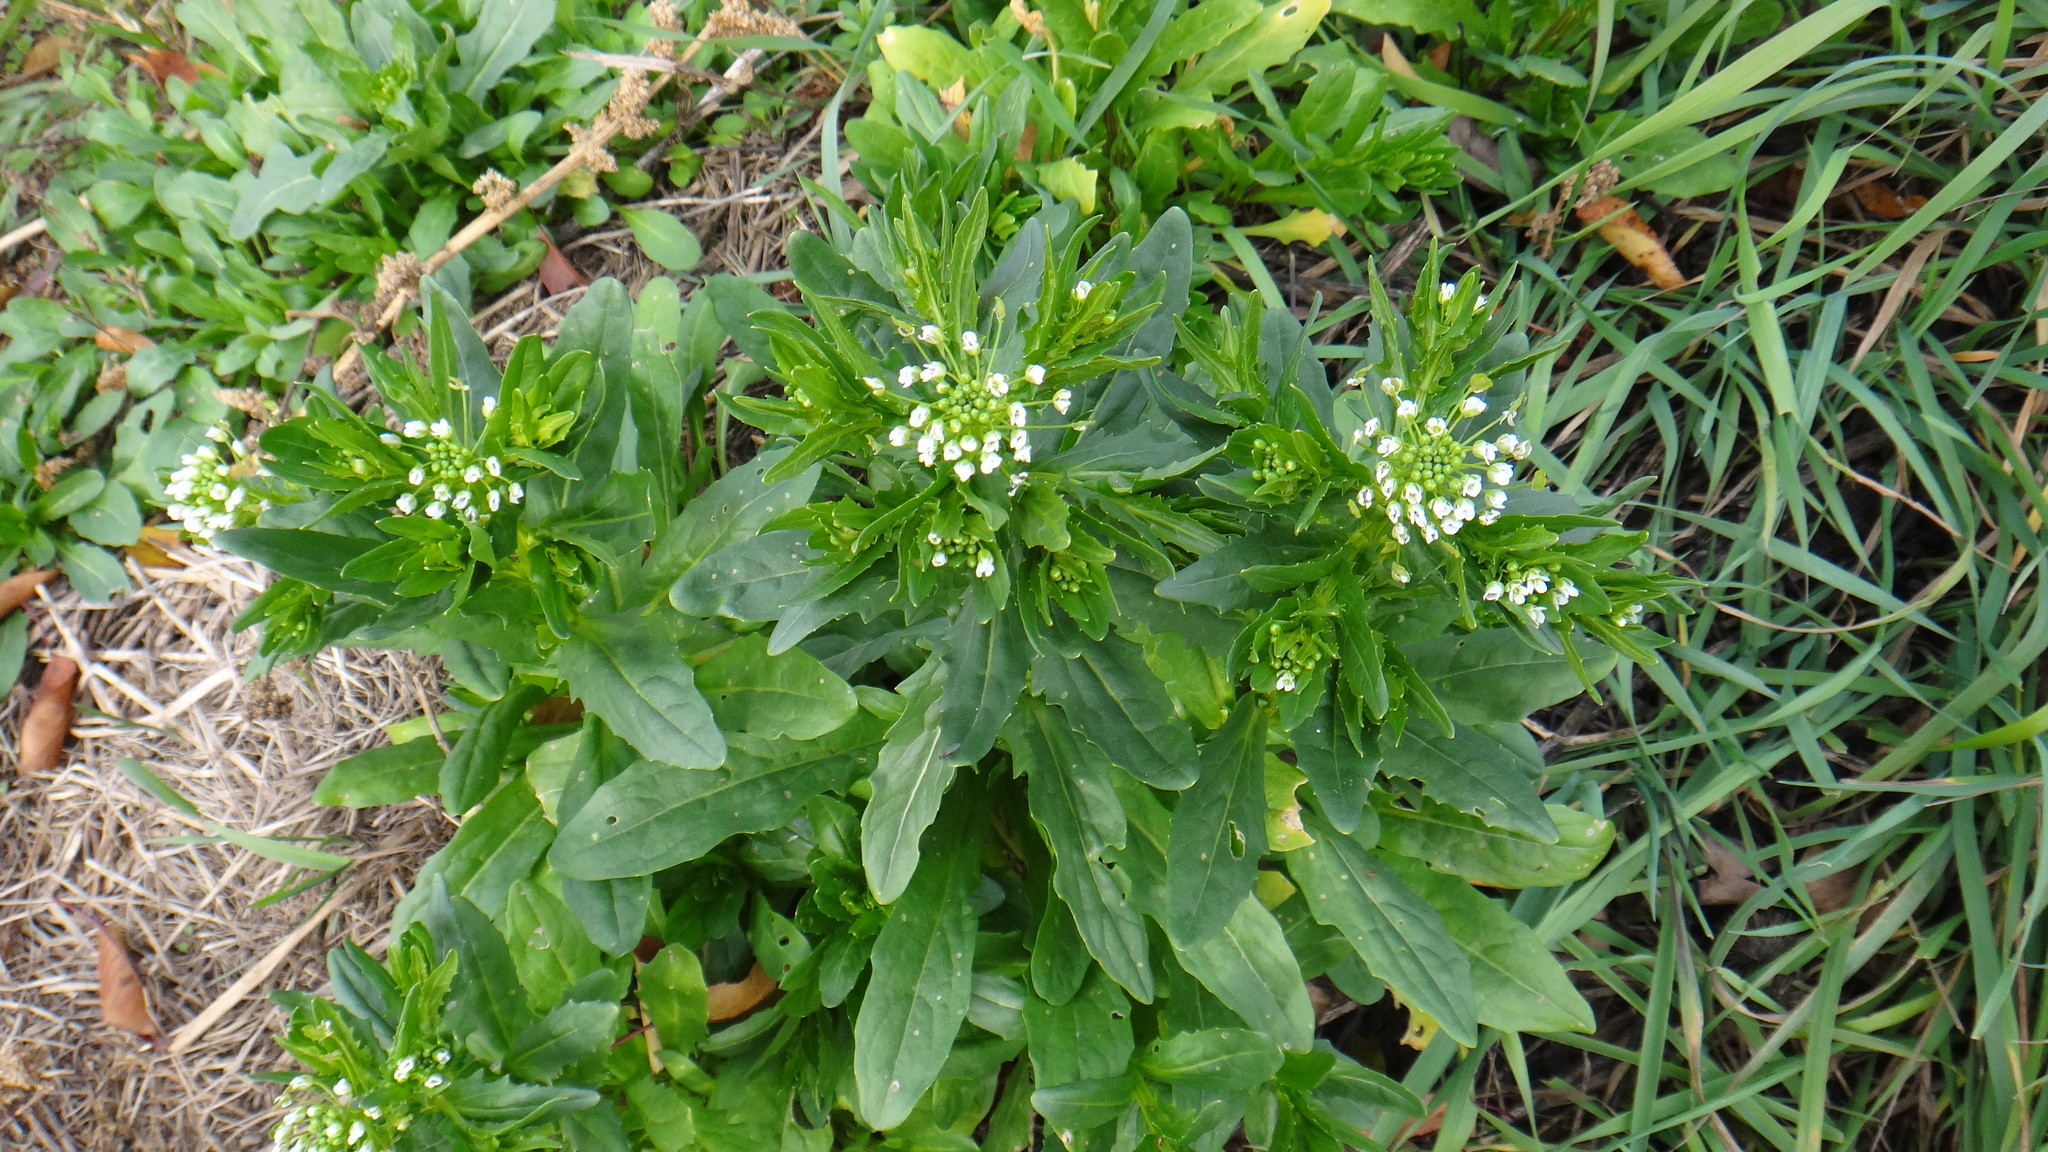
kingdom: Plantae
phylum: Tracheophyta
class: Magnoliopsida
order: Brassicales
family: Brassicaceae
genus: Thlaspi
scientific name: Thlaspi arvense
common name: Field pennycress
